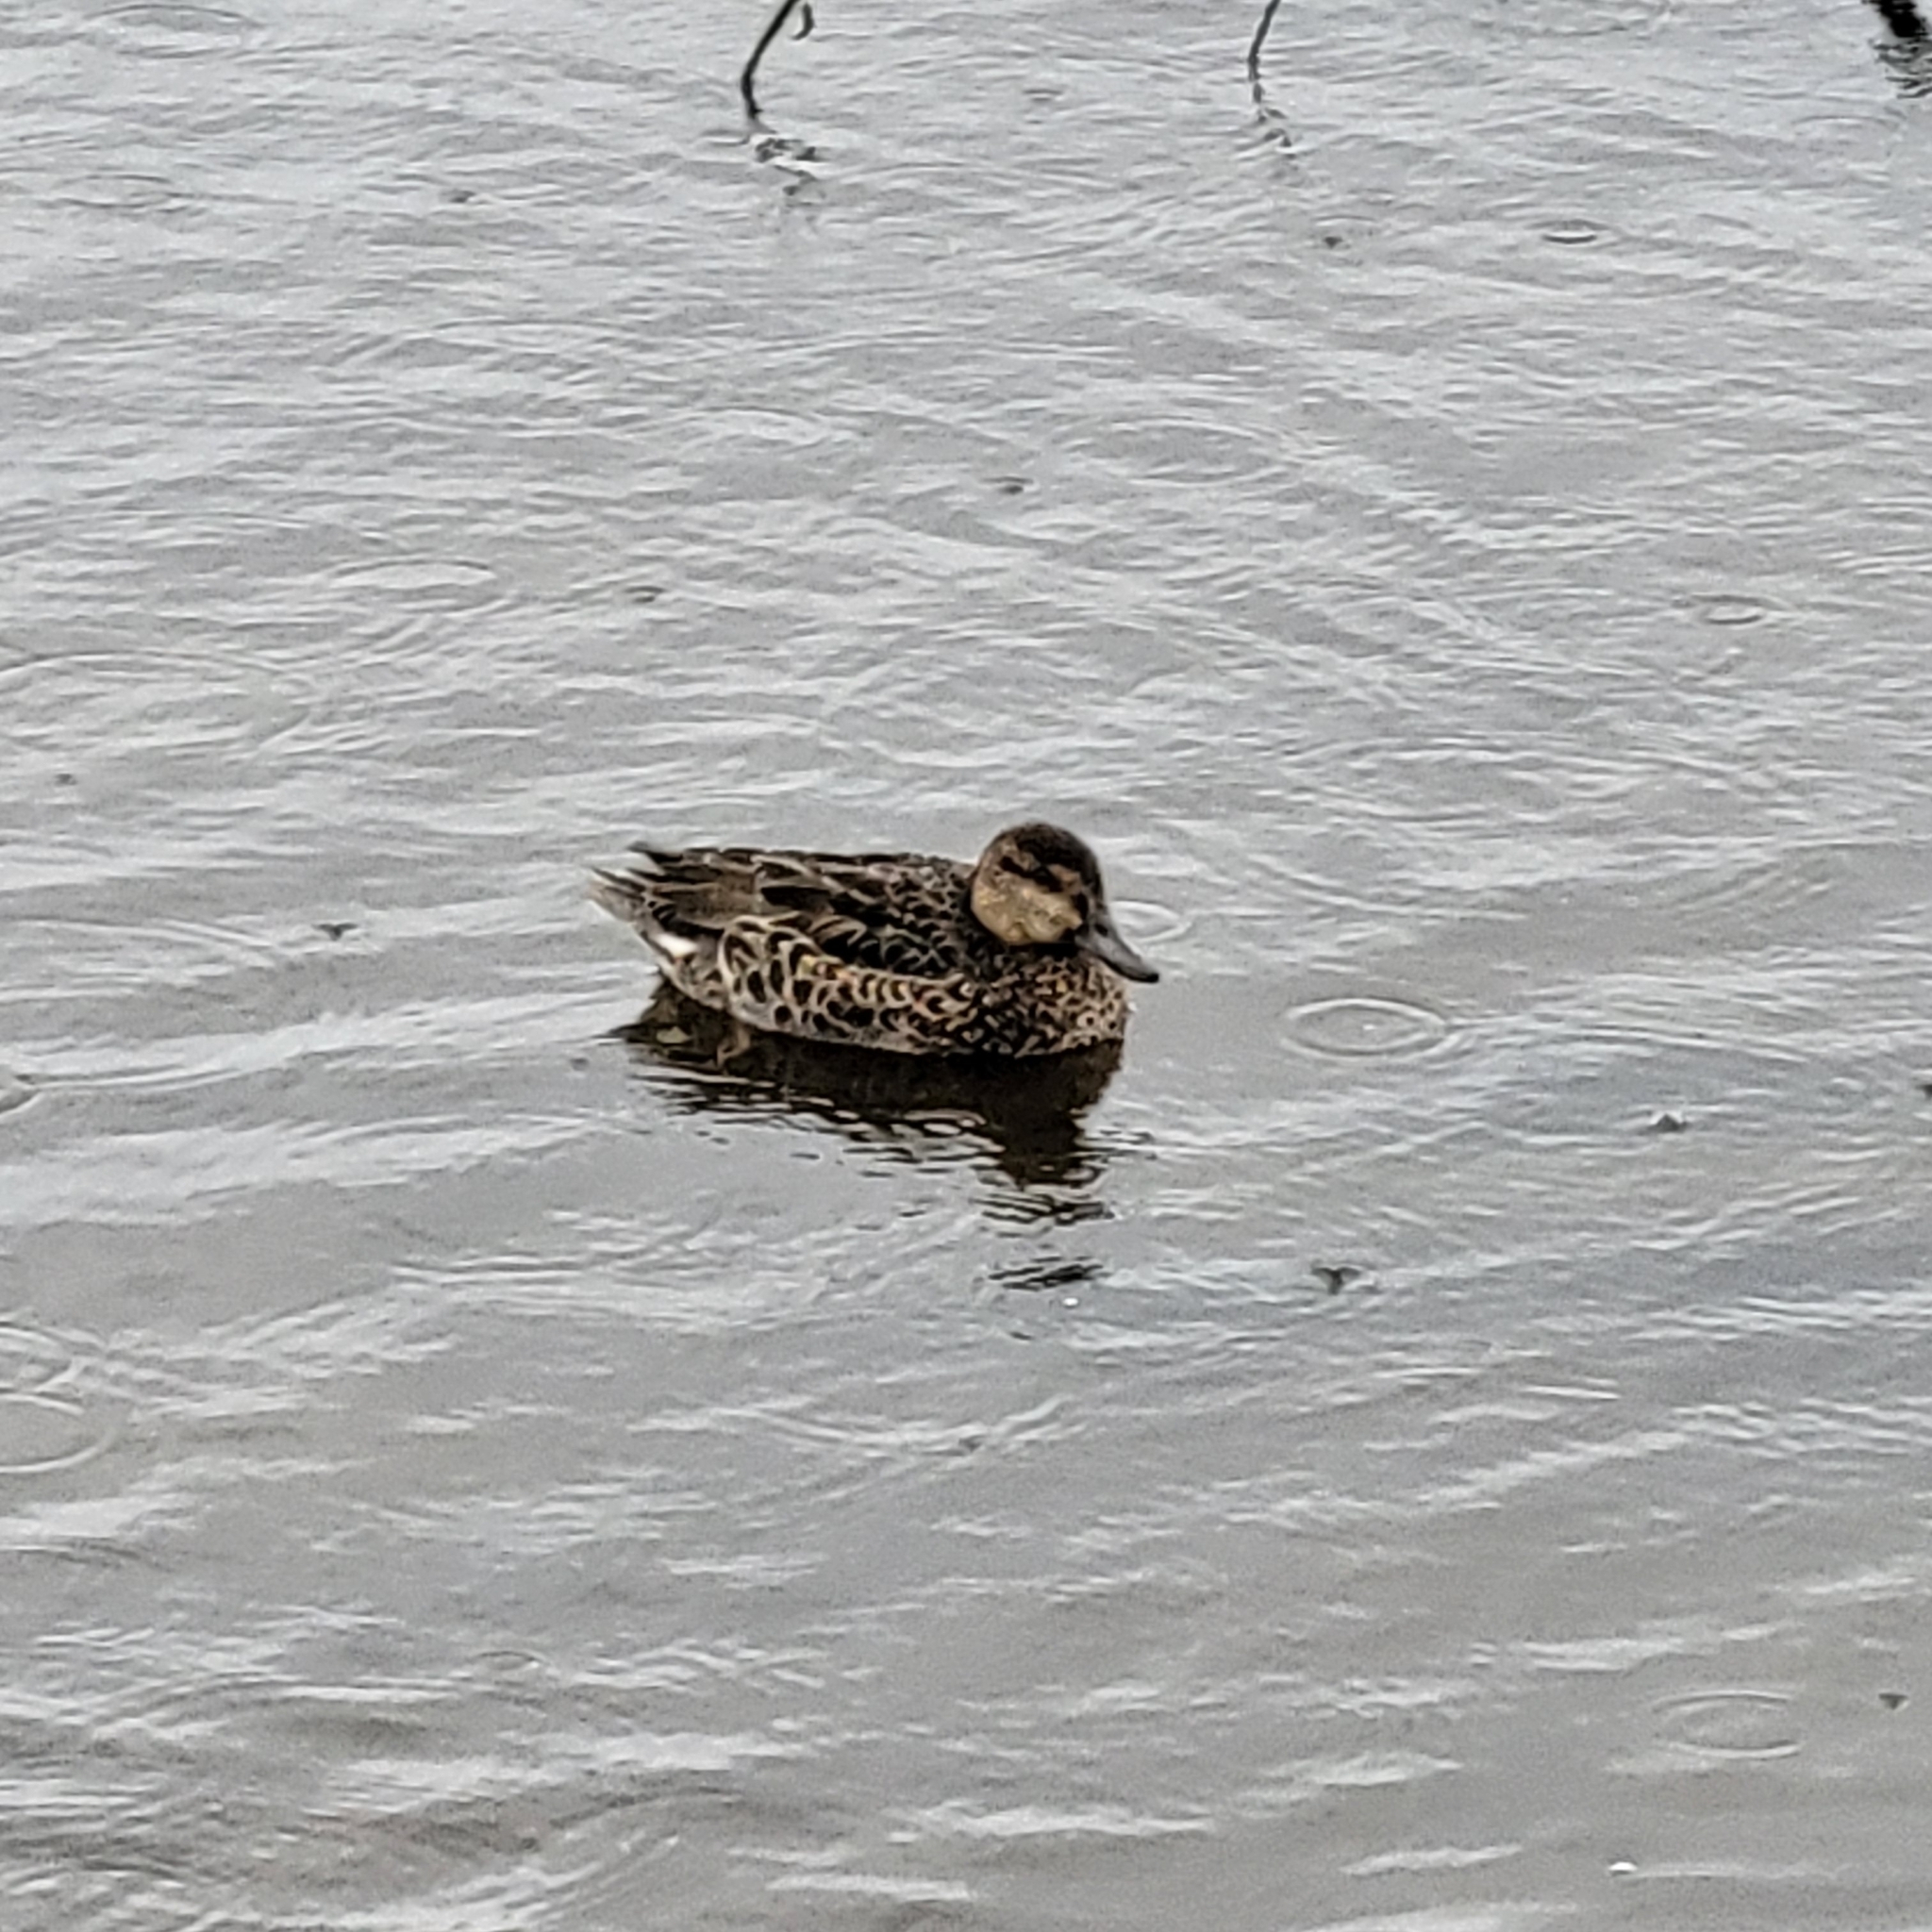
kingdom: Animalia
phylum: Chordata
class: Aves
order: Anseriformes
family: Anatidae
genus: Anas
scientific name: Anas crecca
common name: Eurasian teal
